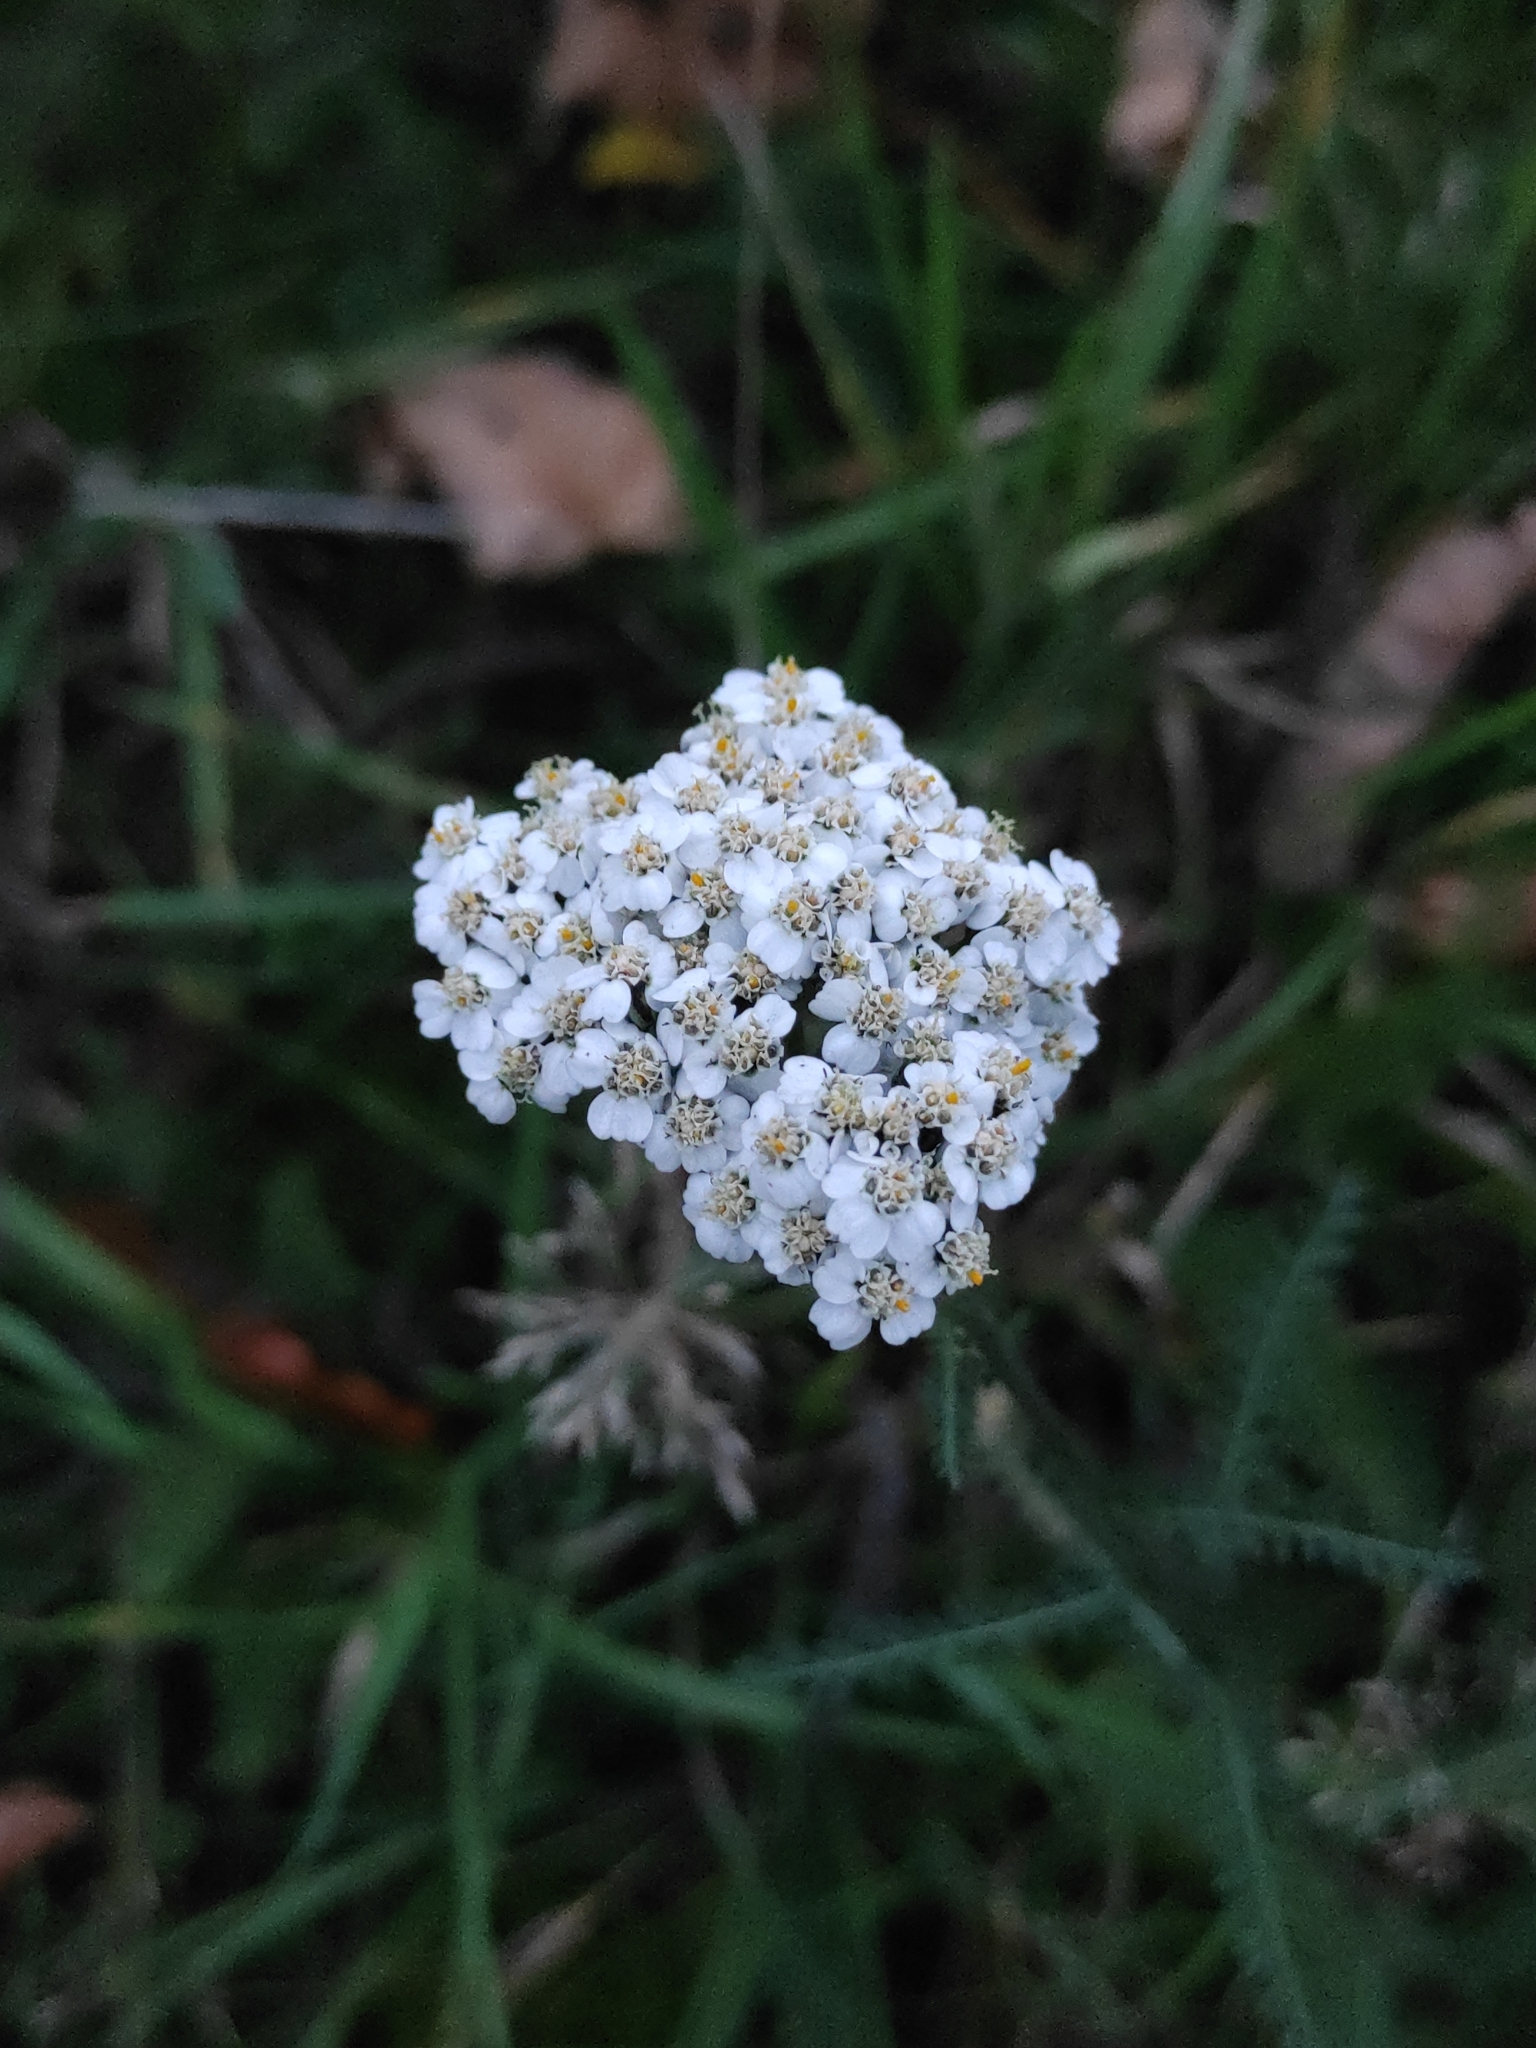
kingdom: Plantae
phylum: Tracheophyta
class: Magnoliopsida
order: Asterales
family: Asteraceae
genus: Achillea
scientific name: Achillea millefolium
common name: Yarrow
